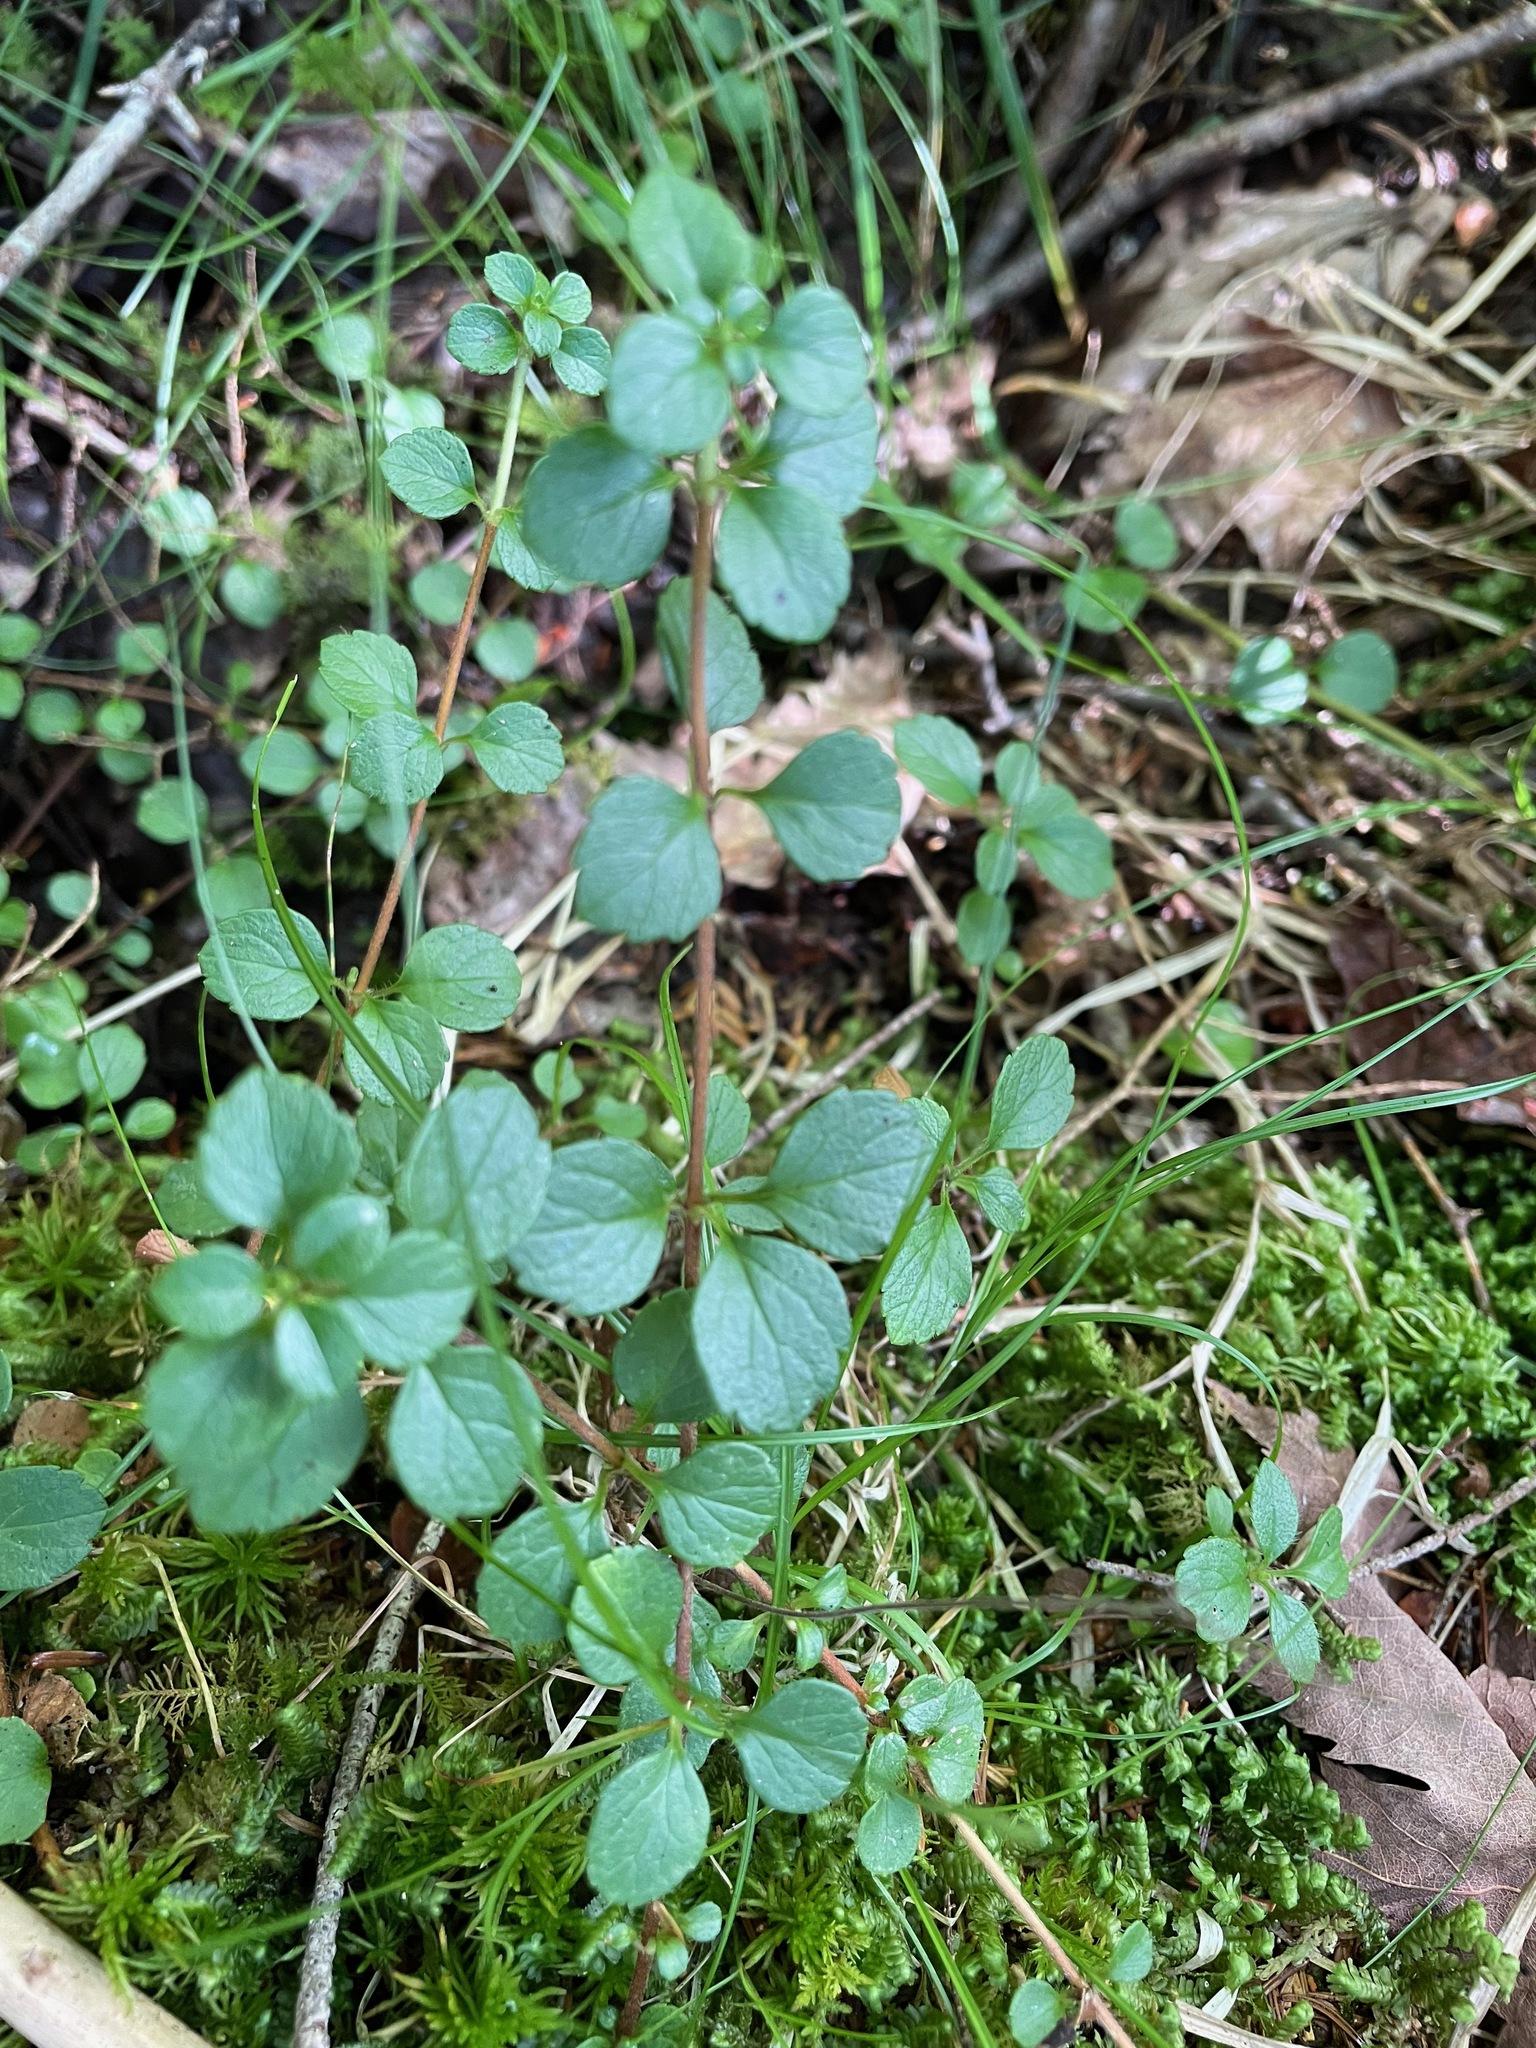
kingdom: Plantae
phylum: Tracheophyta
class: Magnoliopsida
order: Dipsacales
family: Caprifoliaceae
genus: Linnaea
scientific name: Linnaea borealis
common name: Twinflower
